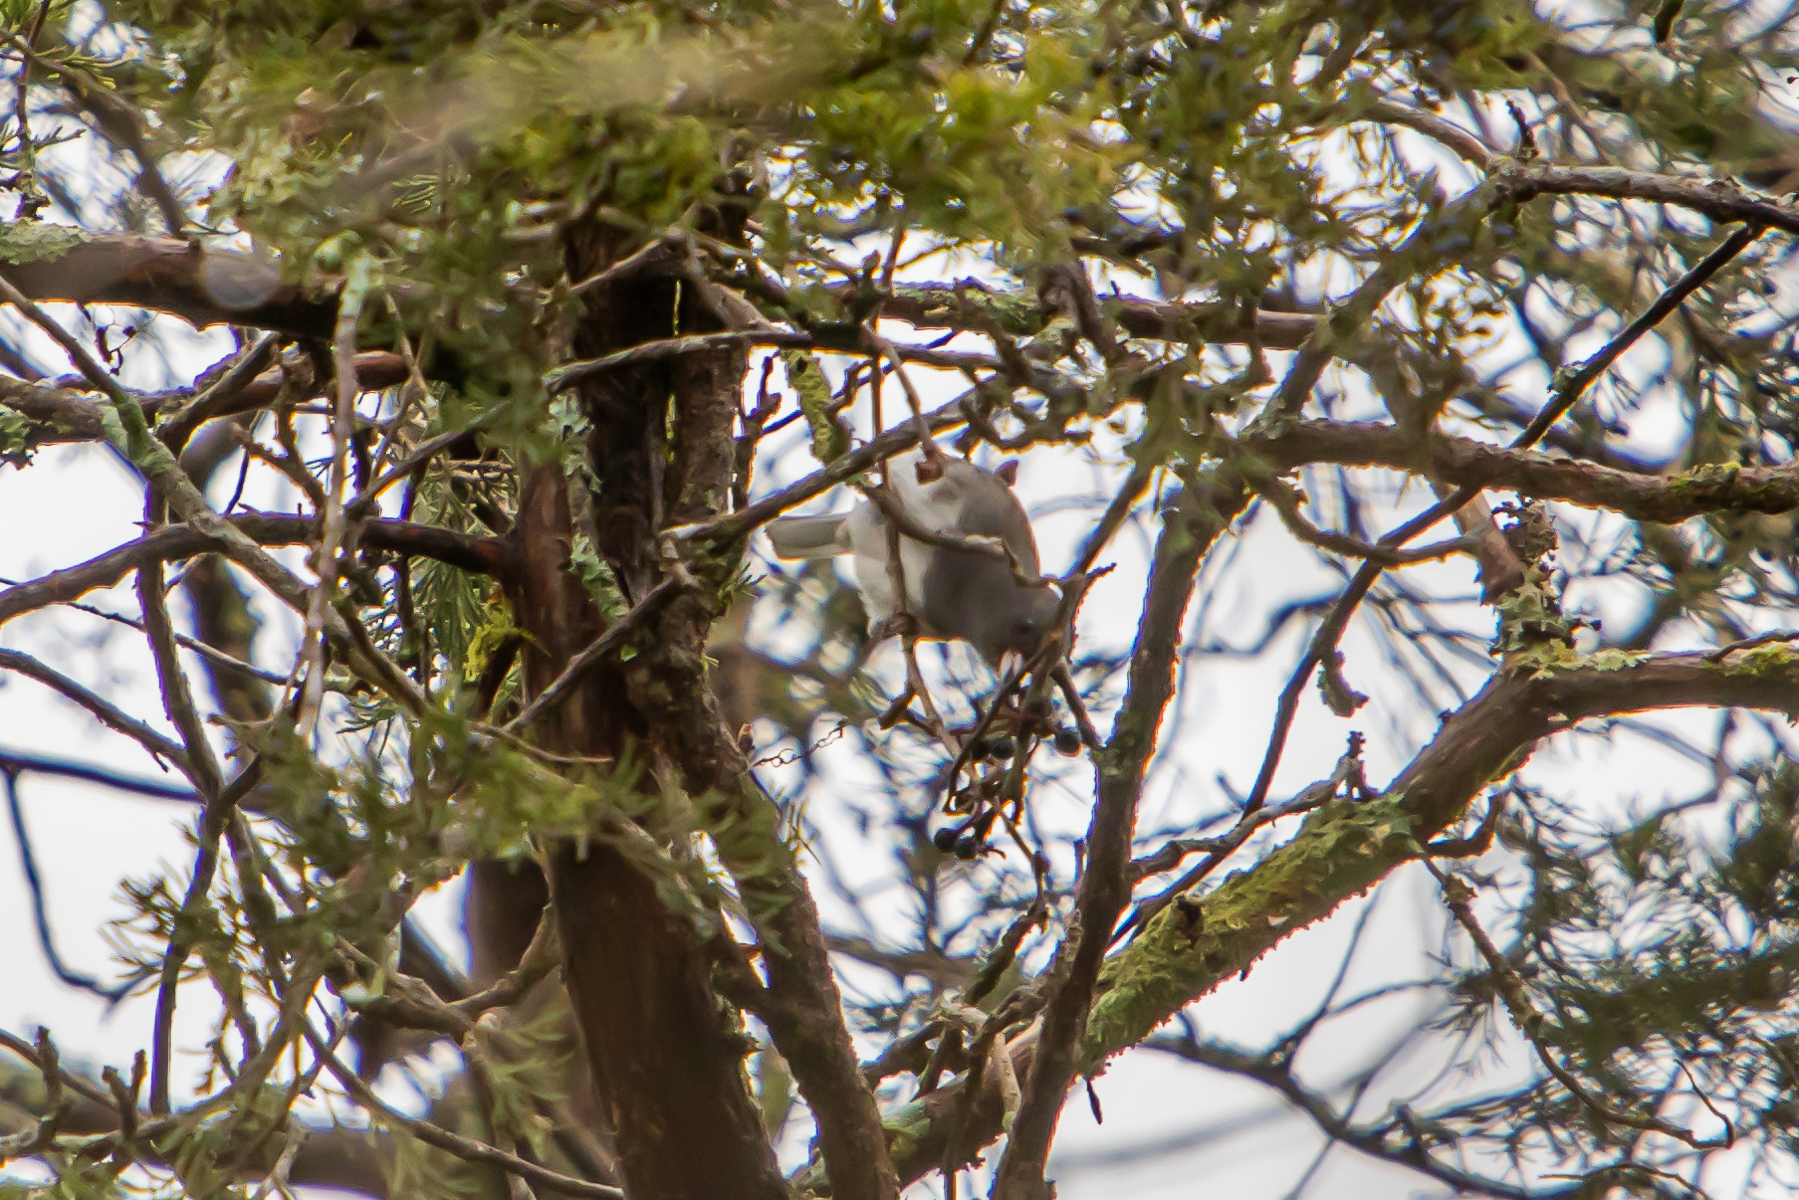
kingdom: Animalia
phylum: Chordata
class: Aves
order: Passeriformes
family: Passerellidae
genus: Junco
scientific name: Junco hyemalis
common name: Dark-eyed junco
